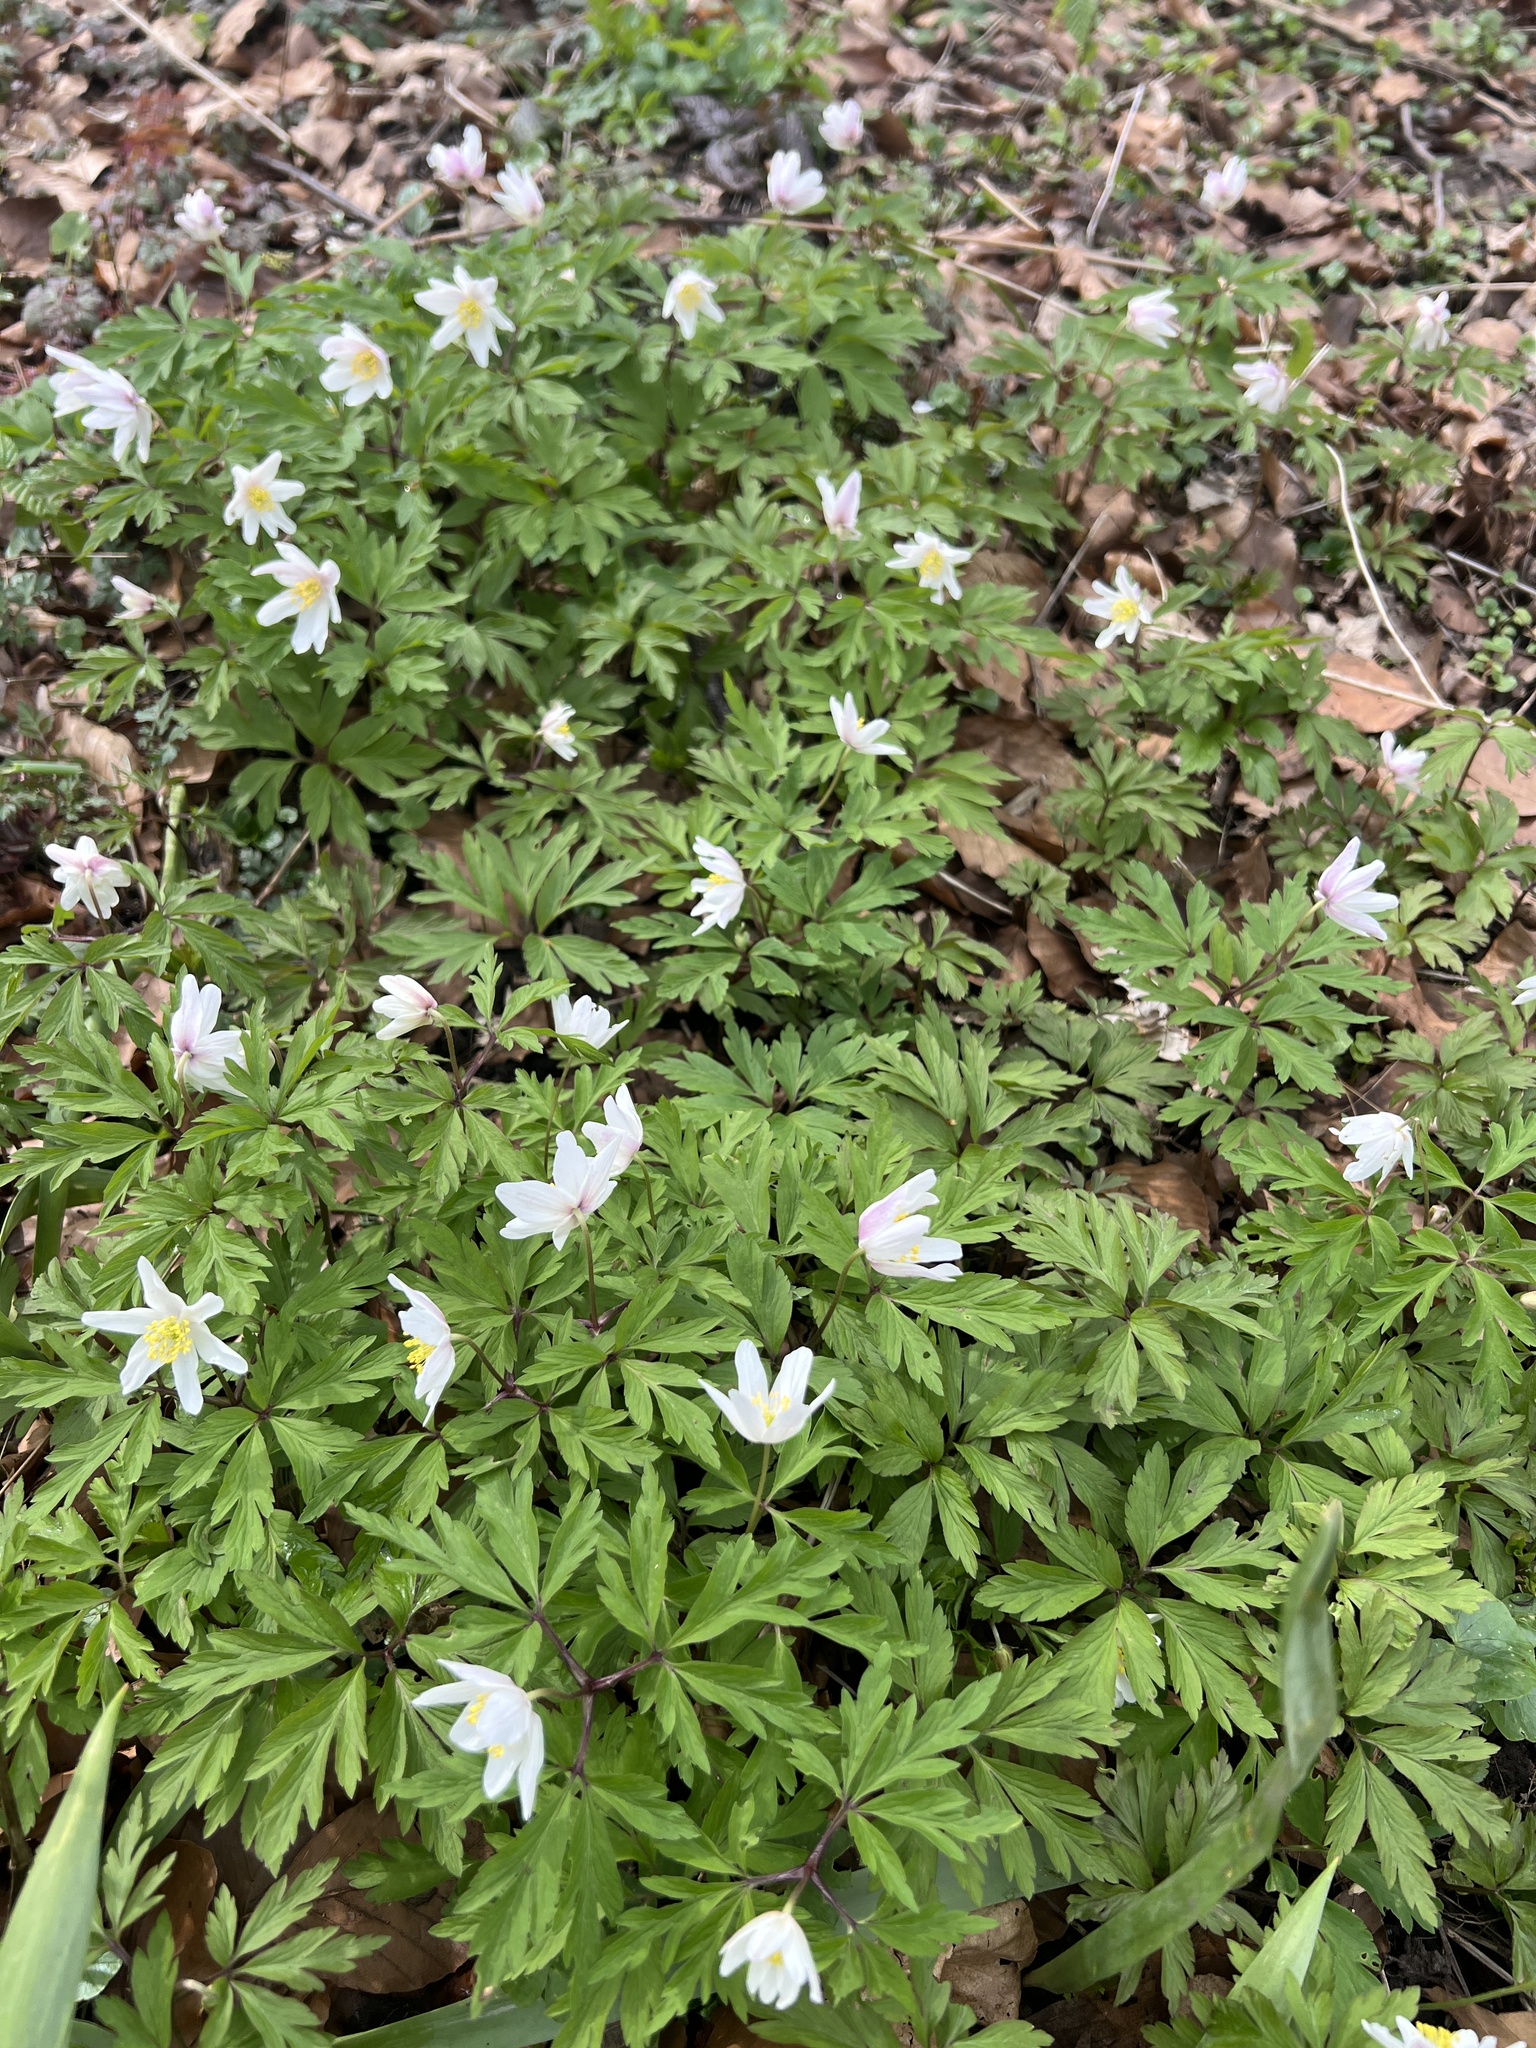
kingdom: Plantae
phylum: Tracheophyta
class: Magnoliopsida
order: Ranunculales
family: Ranunculaceae
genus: Anemone
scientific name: Anemone nemorosa
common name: Wood anemone
